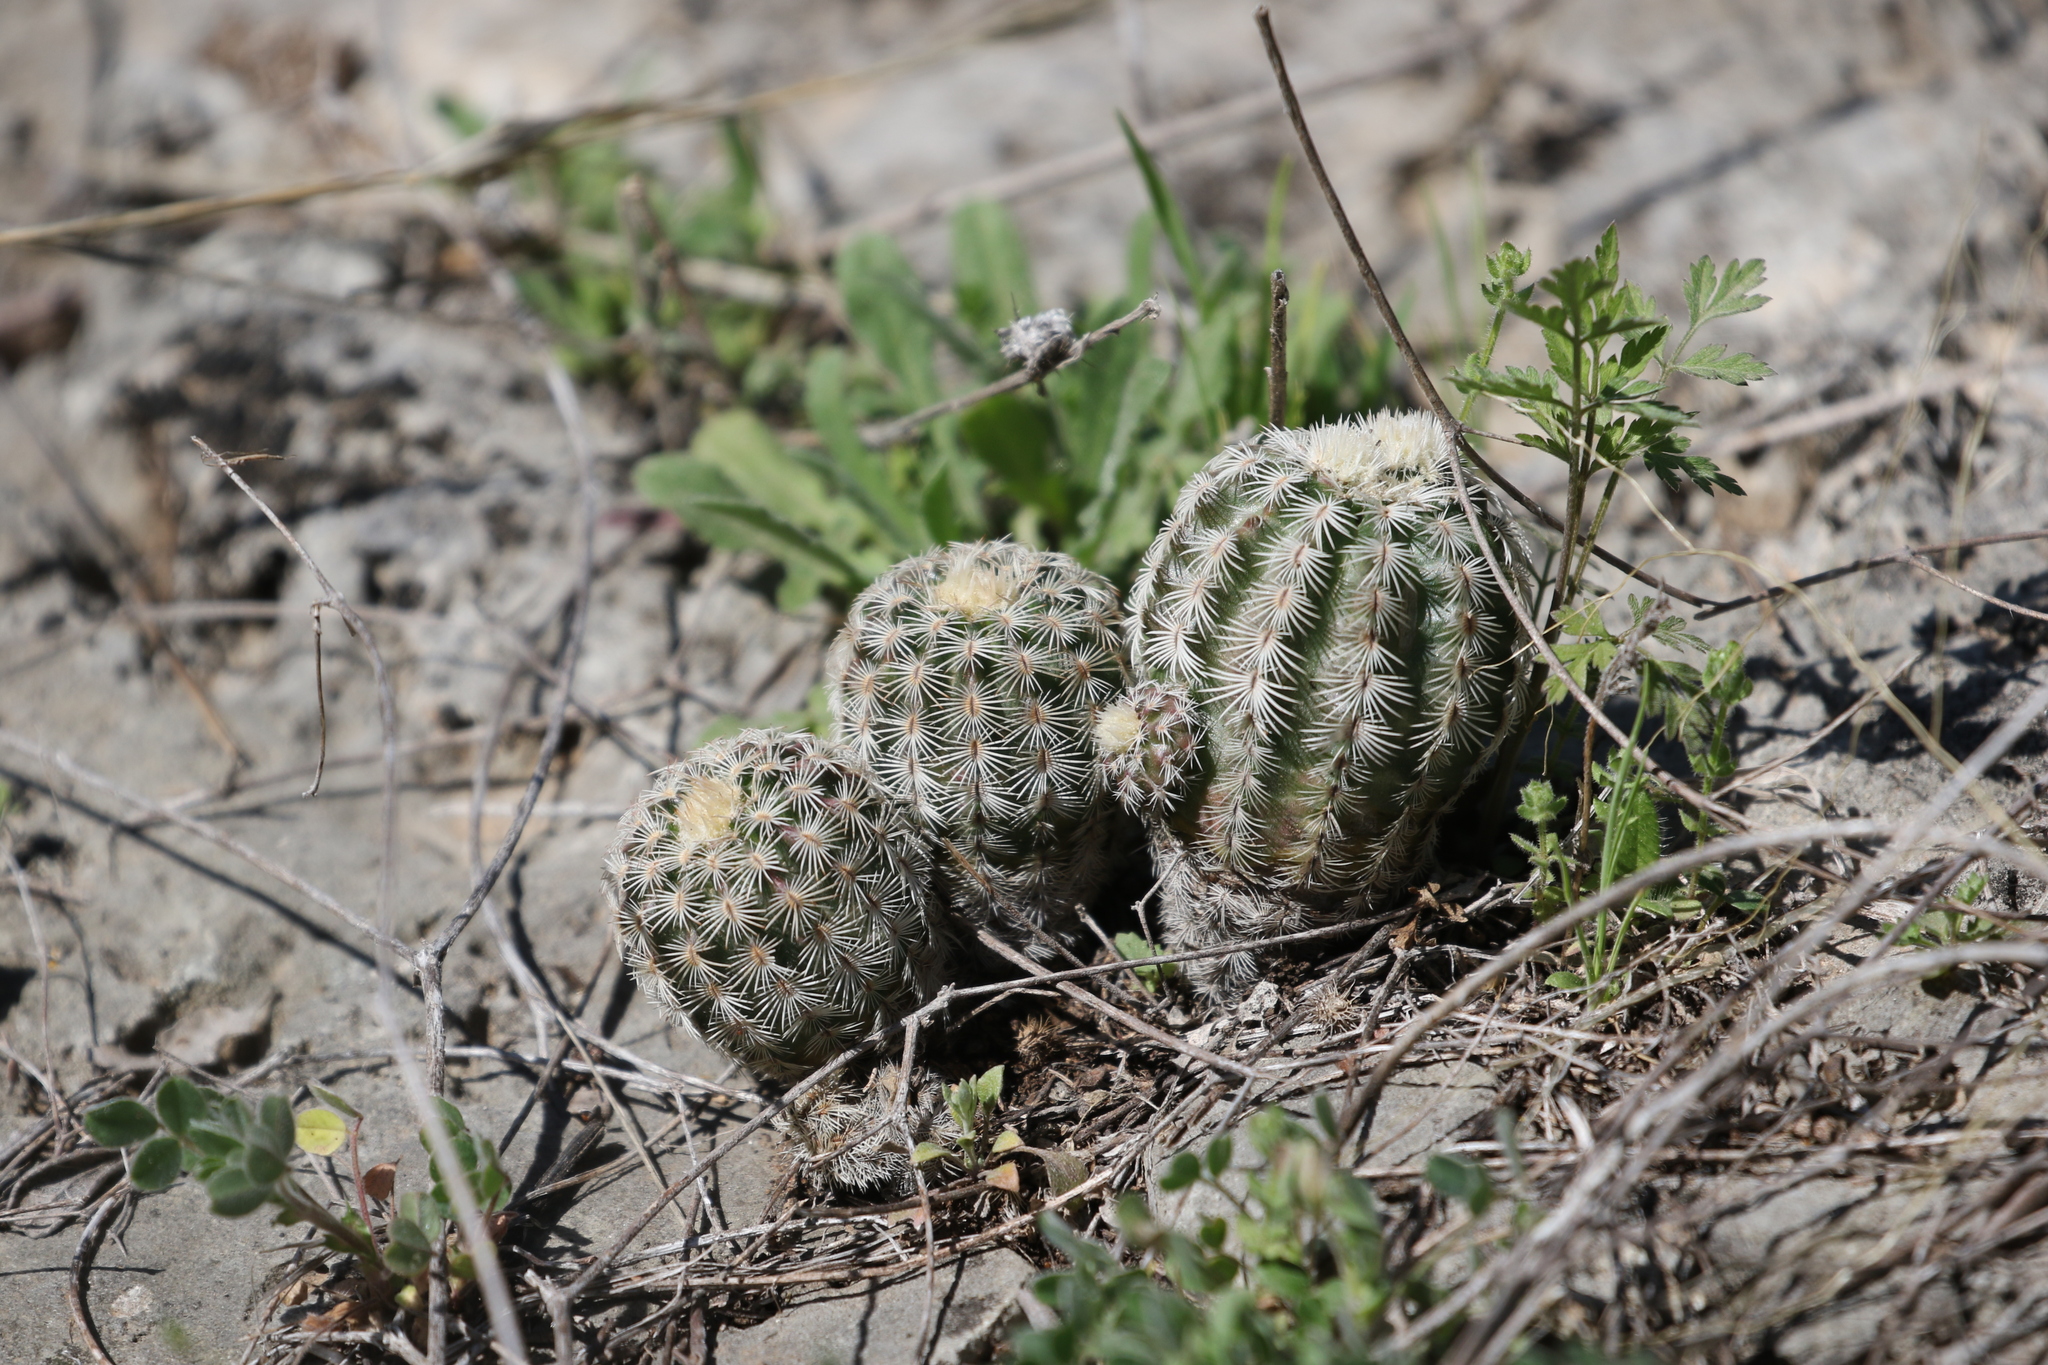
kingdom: Plantae
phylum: Tracheophyta
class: Magnoliopsida
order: Caryophyllales
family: Cactaceae
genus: Echinocereus
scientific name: Echinocereus reichenbachii
